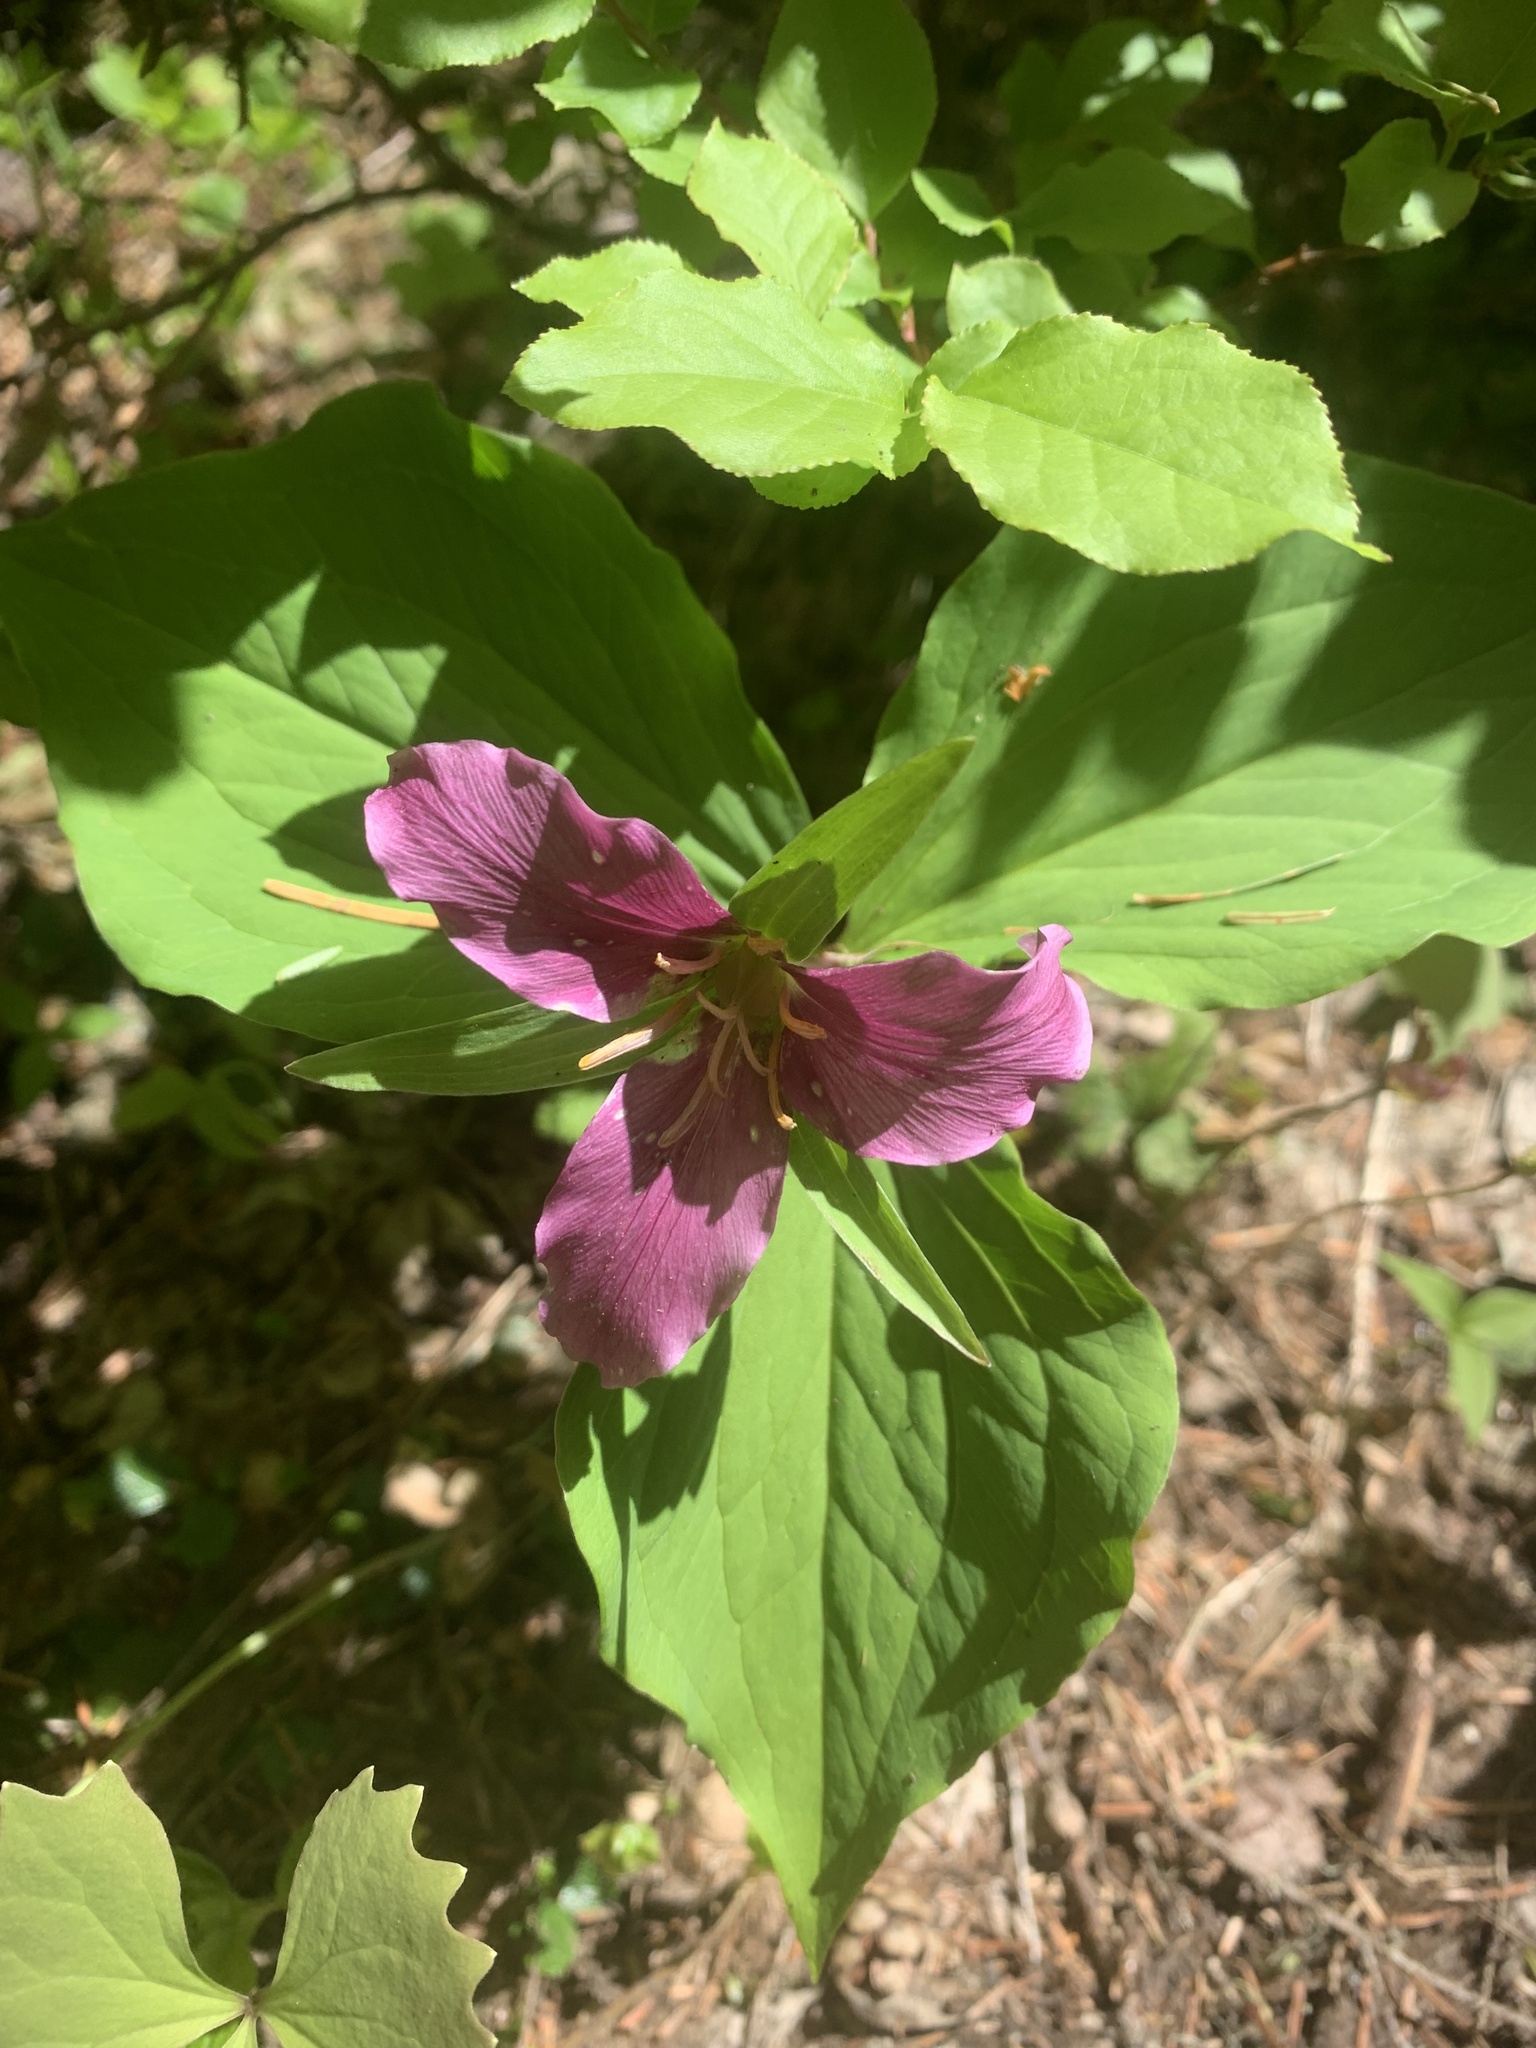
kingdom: Plantae
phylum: Tracheophyta
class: Liliopsida
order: Liliales
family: Melanthiaceae
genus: Trillium
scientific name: Trillium ovatum
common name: Pacific trillium
